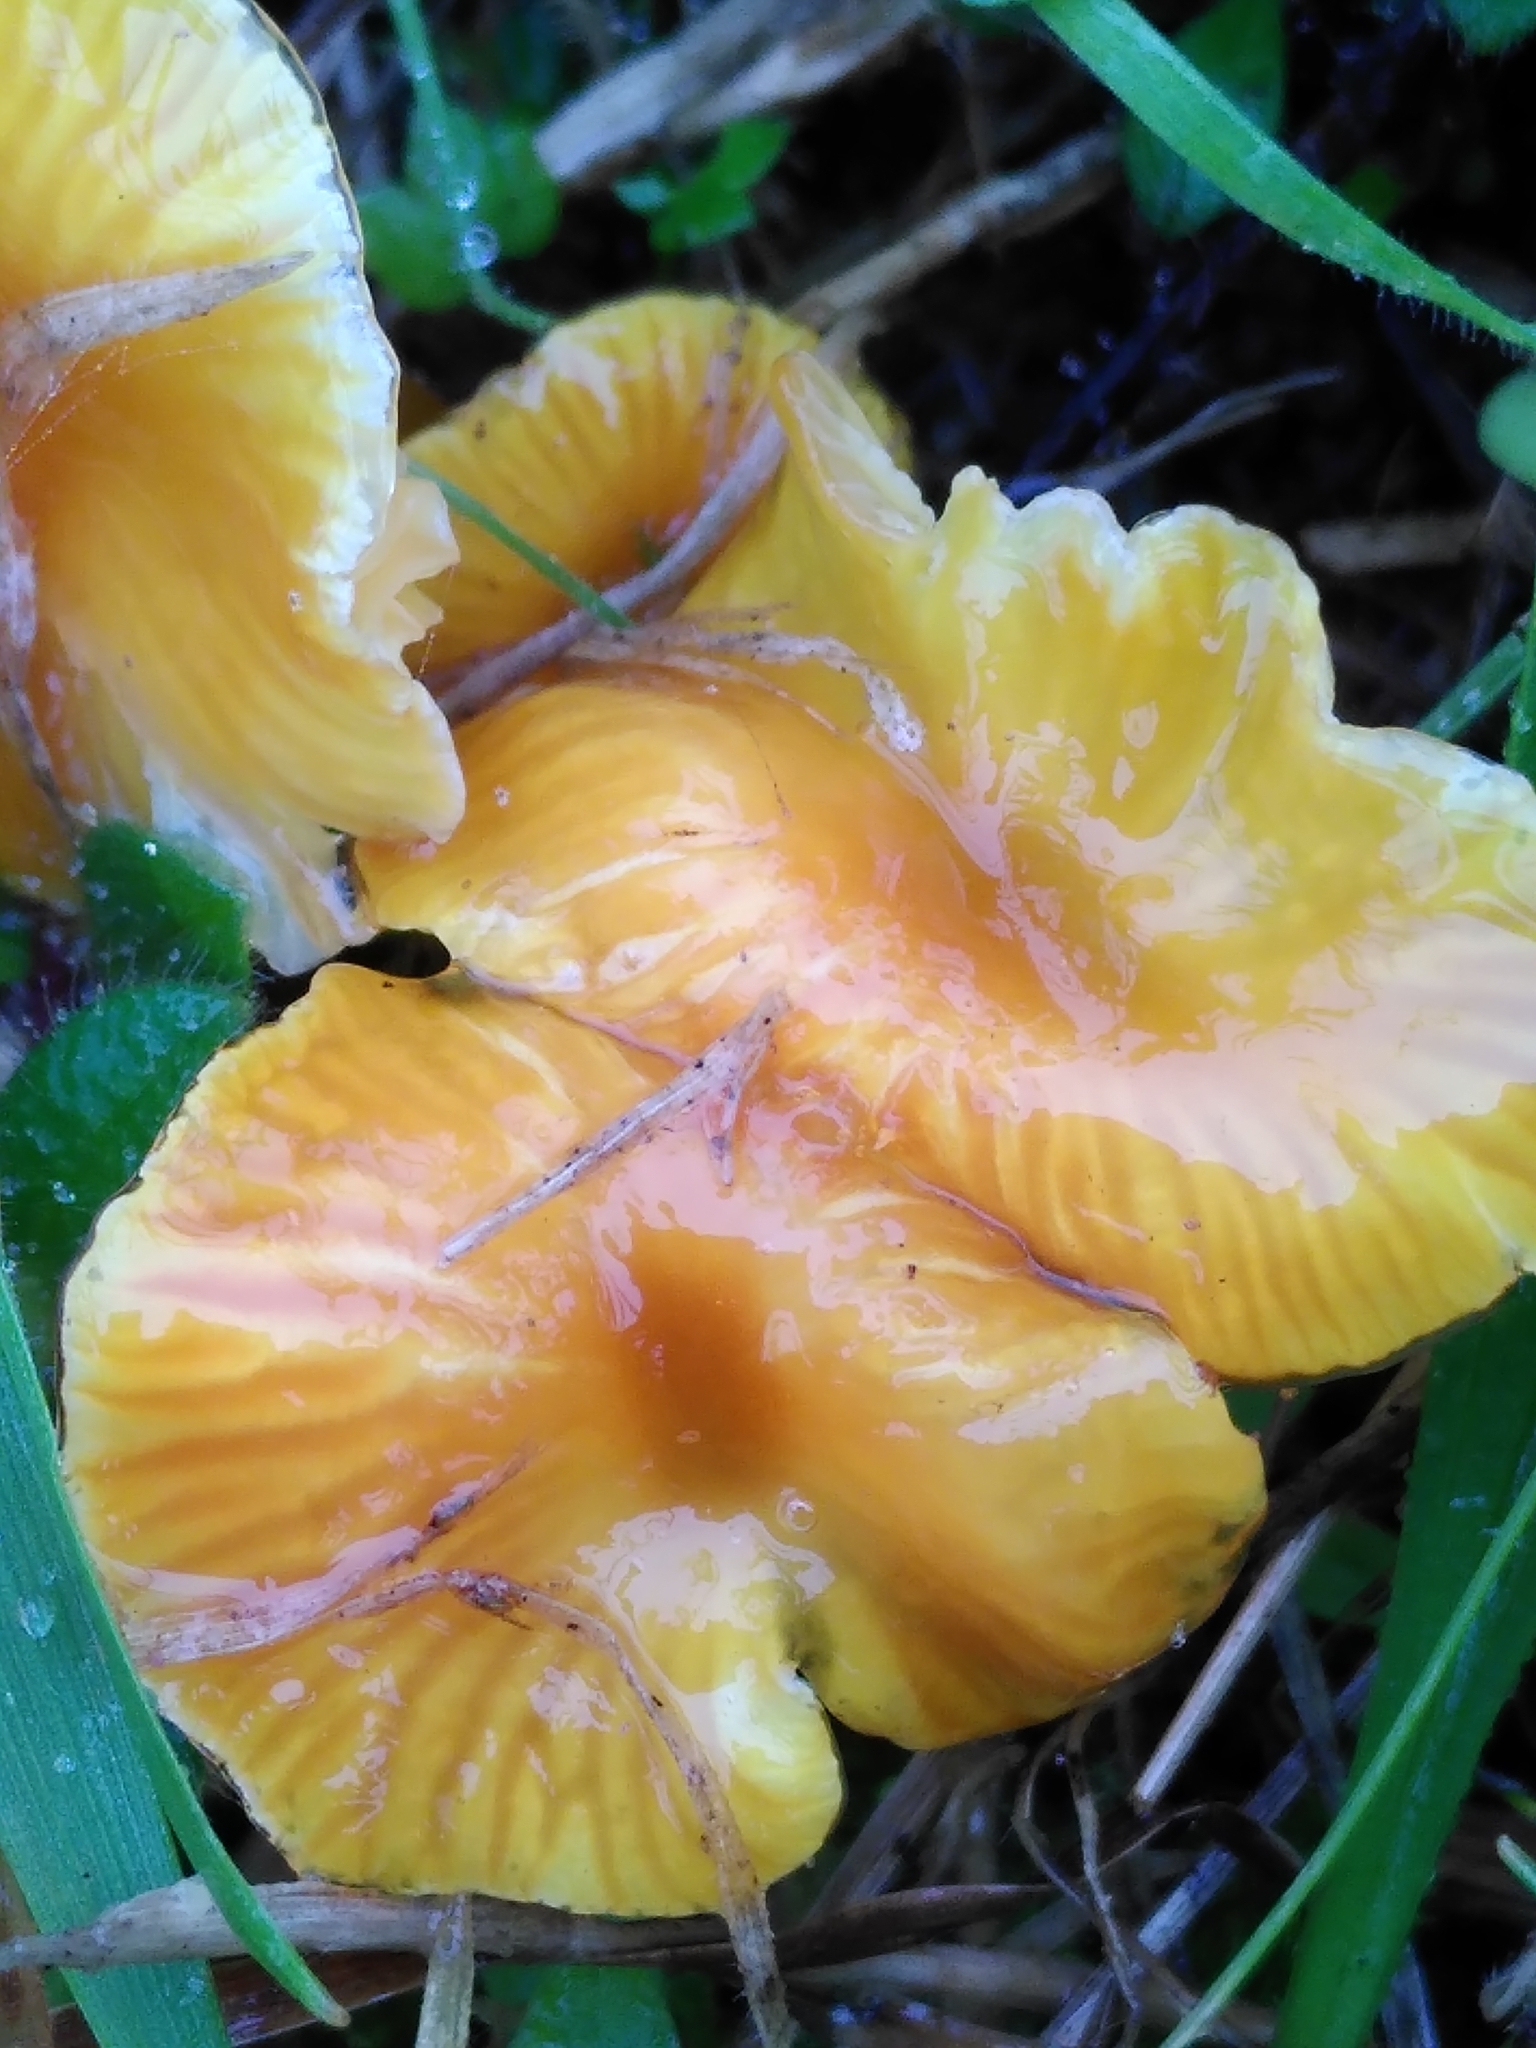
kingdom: Fungi
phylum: Basidiomycota
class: Agaricomycetes
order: Agaricales
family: Hygrophoraceae
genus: Hygrocybe
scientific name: Hygrocybe glutinipes
